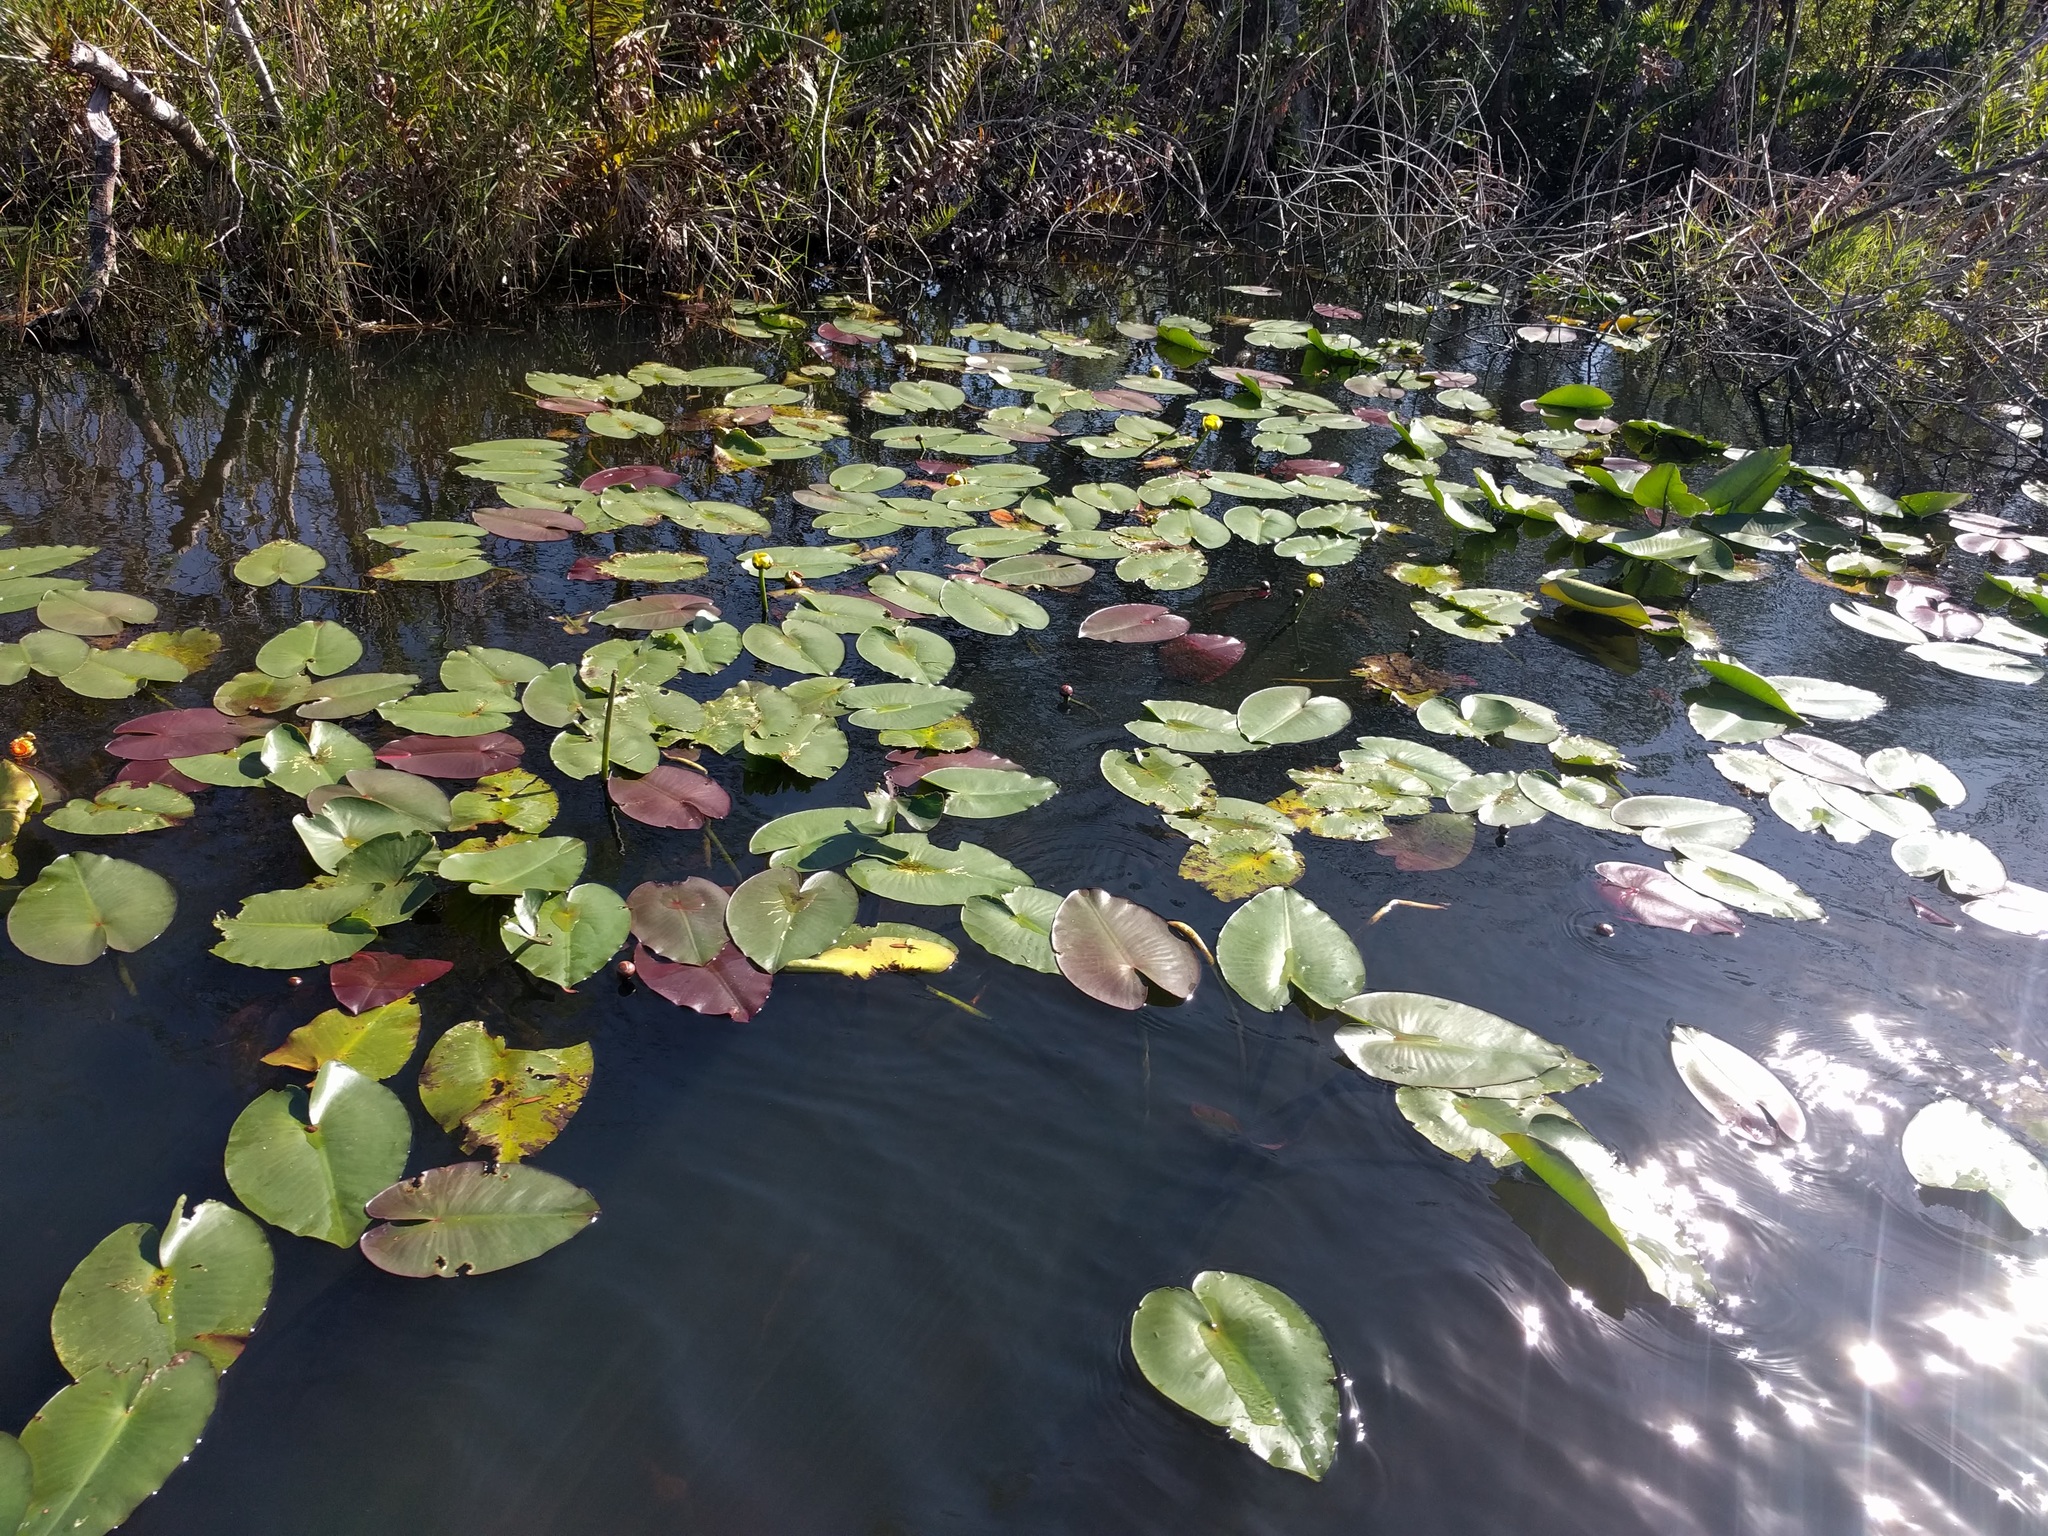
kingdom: Plantae
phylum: Tracheophyta
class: Magnoliopsida
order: Nymphaeales
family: Nymphaeaceae
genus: Nuphar
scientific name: Nuphar advena
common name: Spatter-dock
